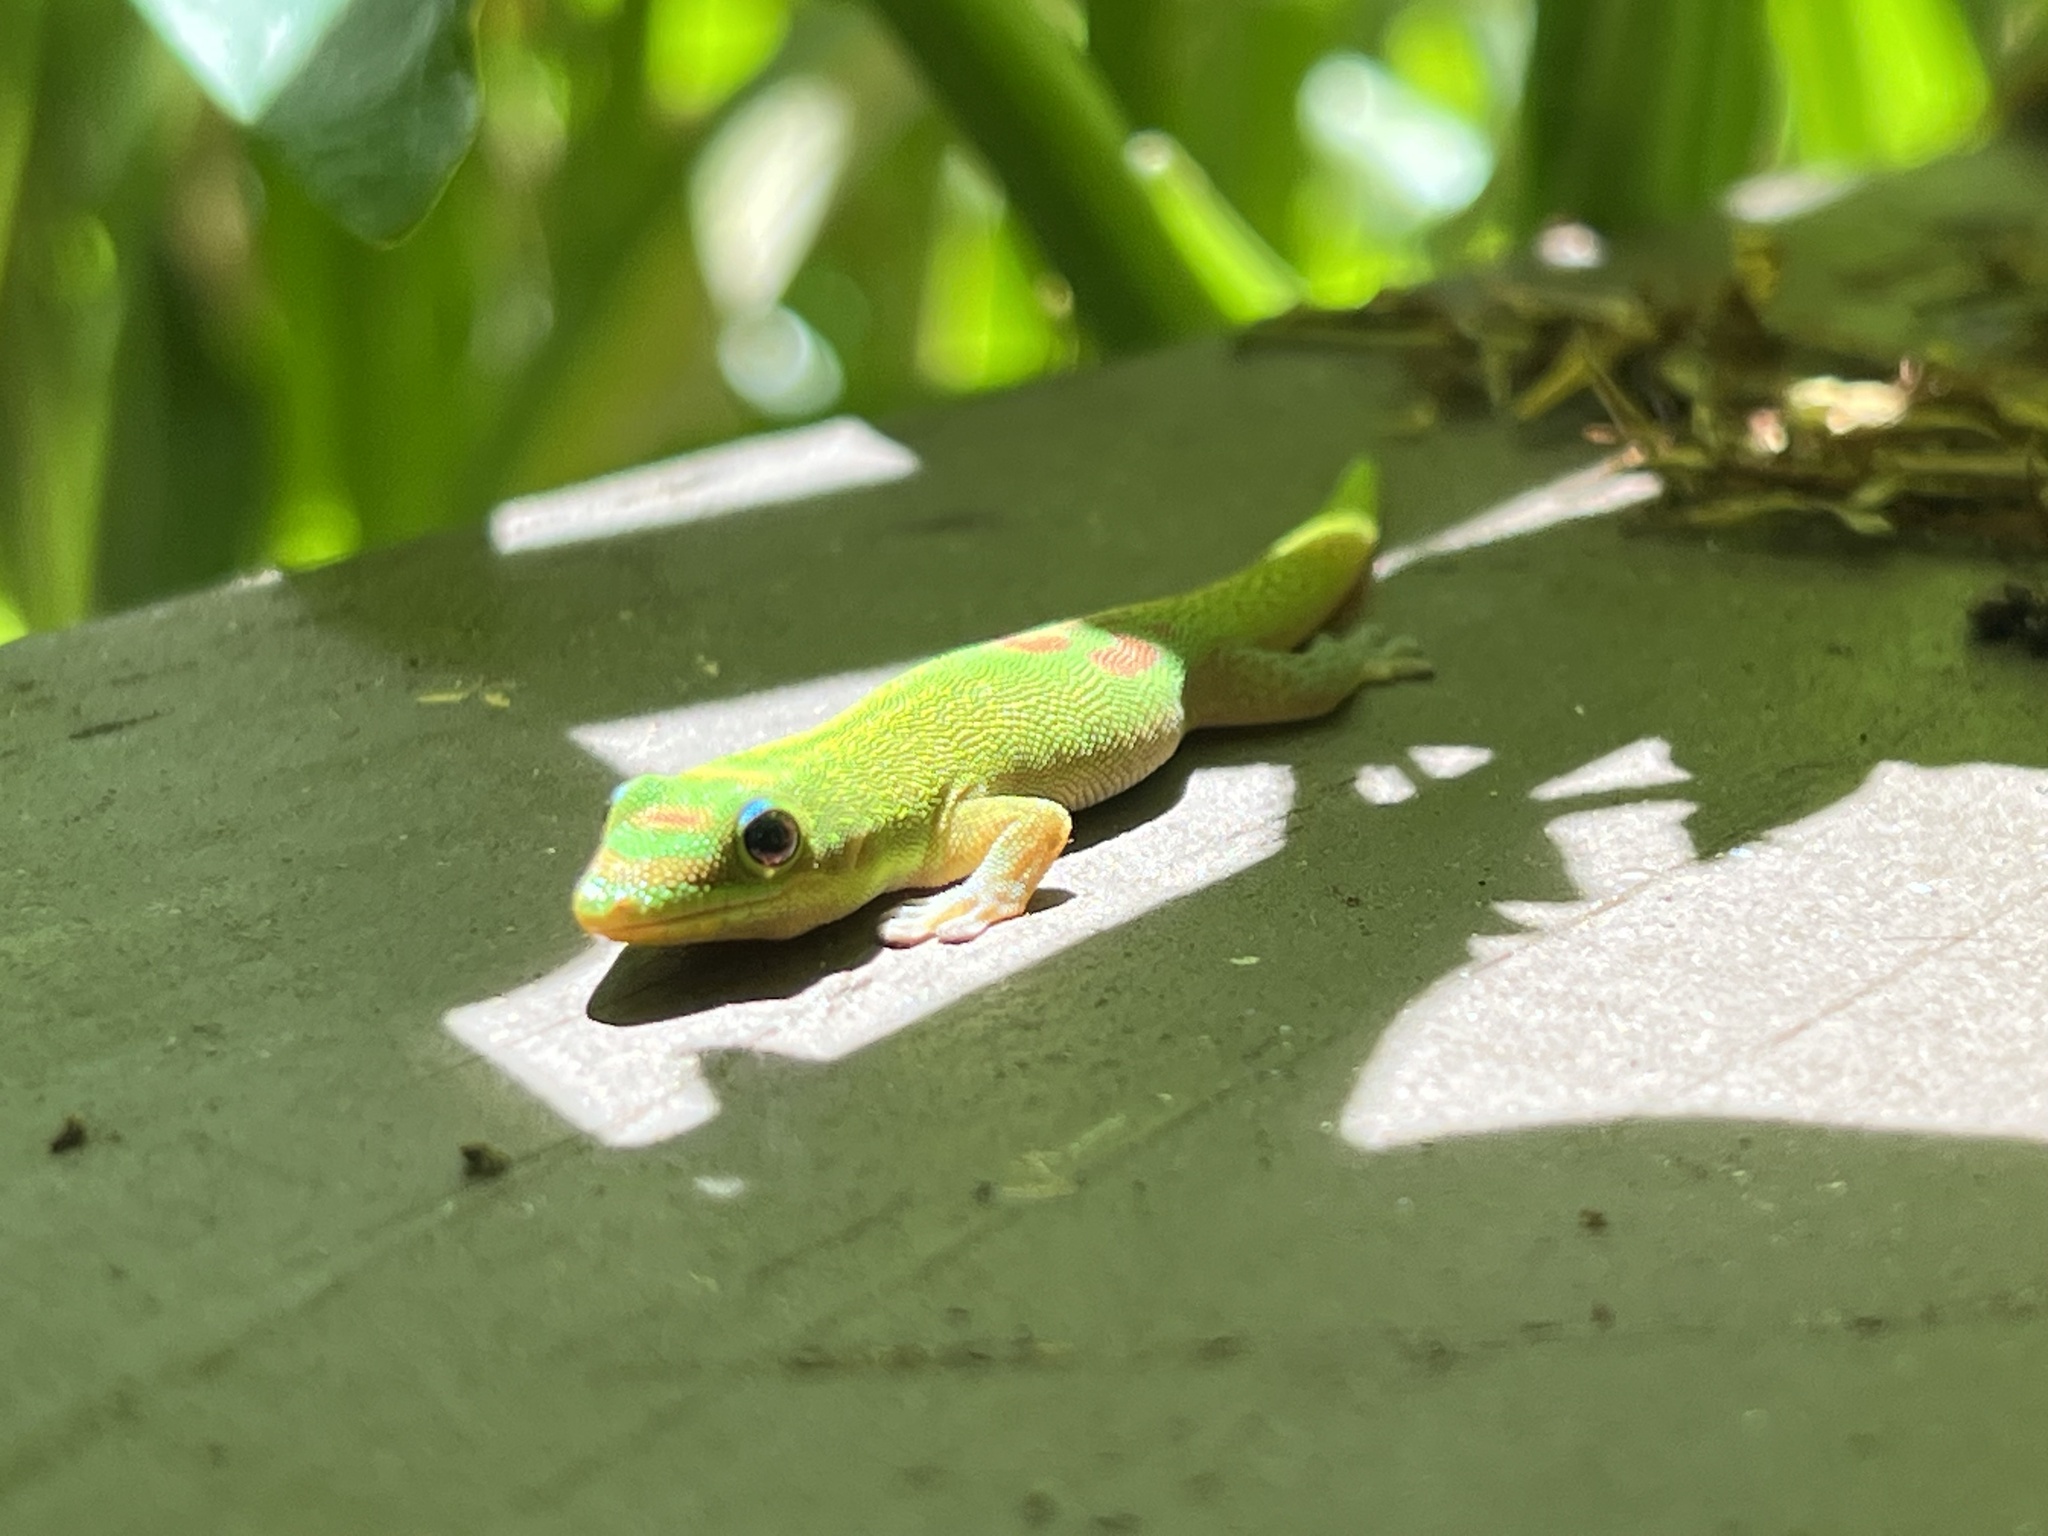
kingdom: Animalia
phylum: Chordata
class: Squamata
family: Gekkonidae
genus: Phelsuma
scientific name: Phelsuma laticauda
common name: Gold dust day gecko
